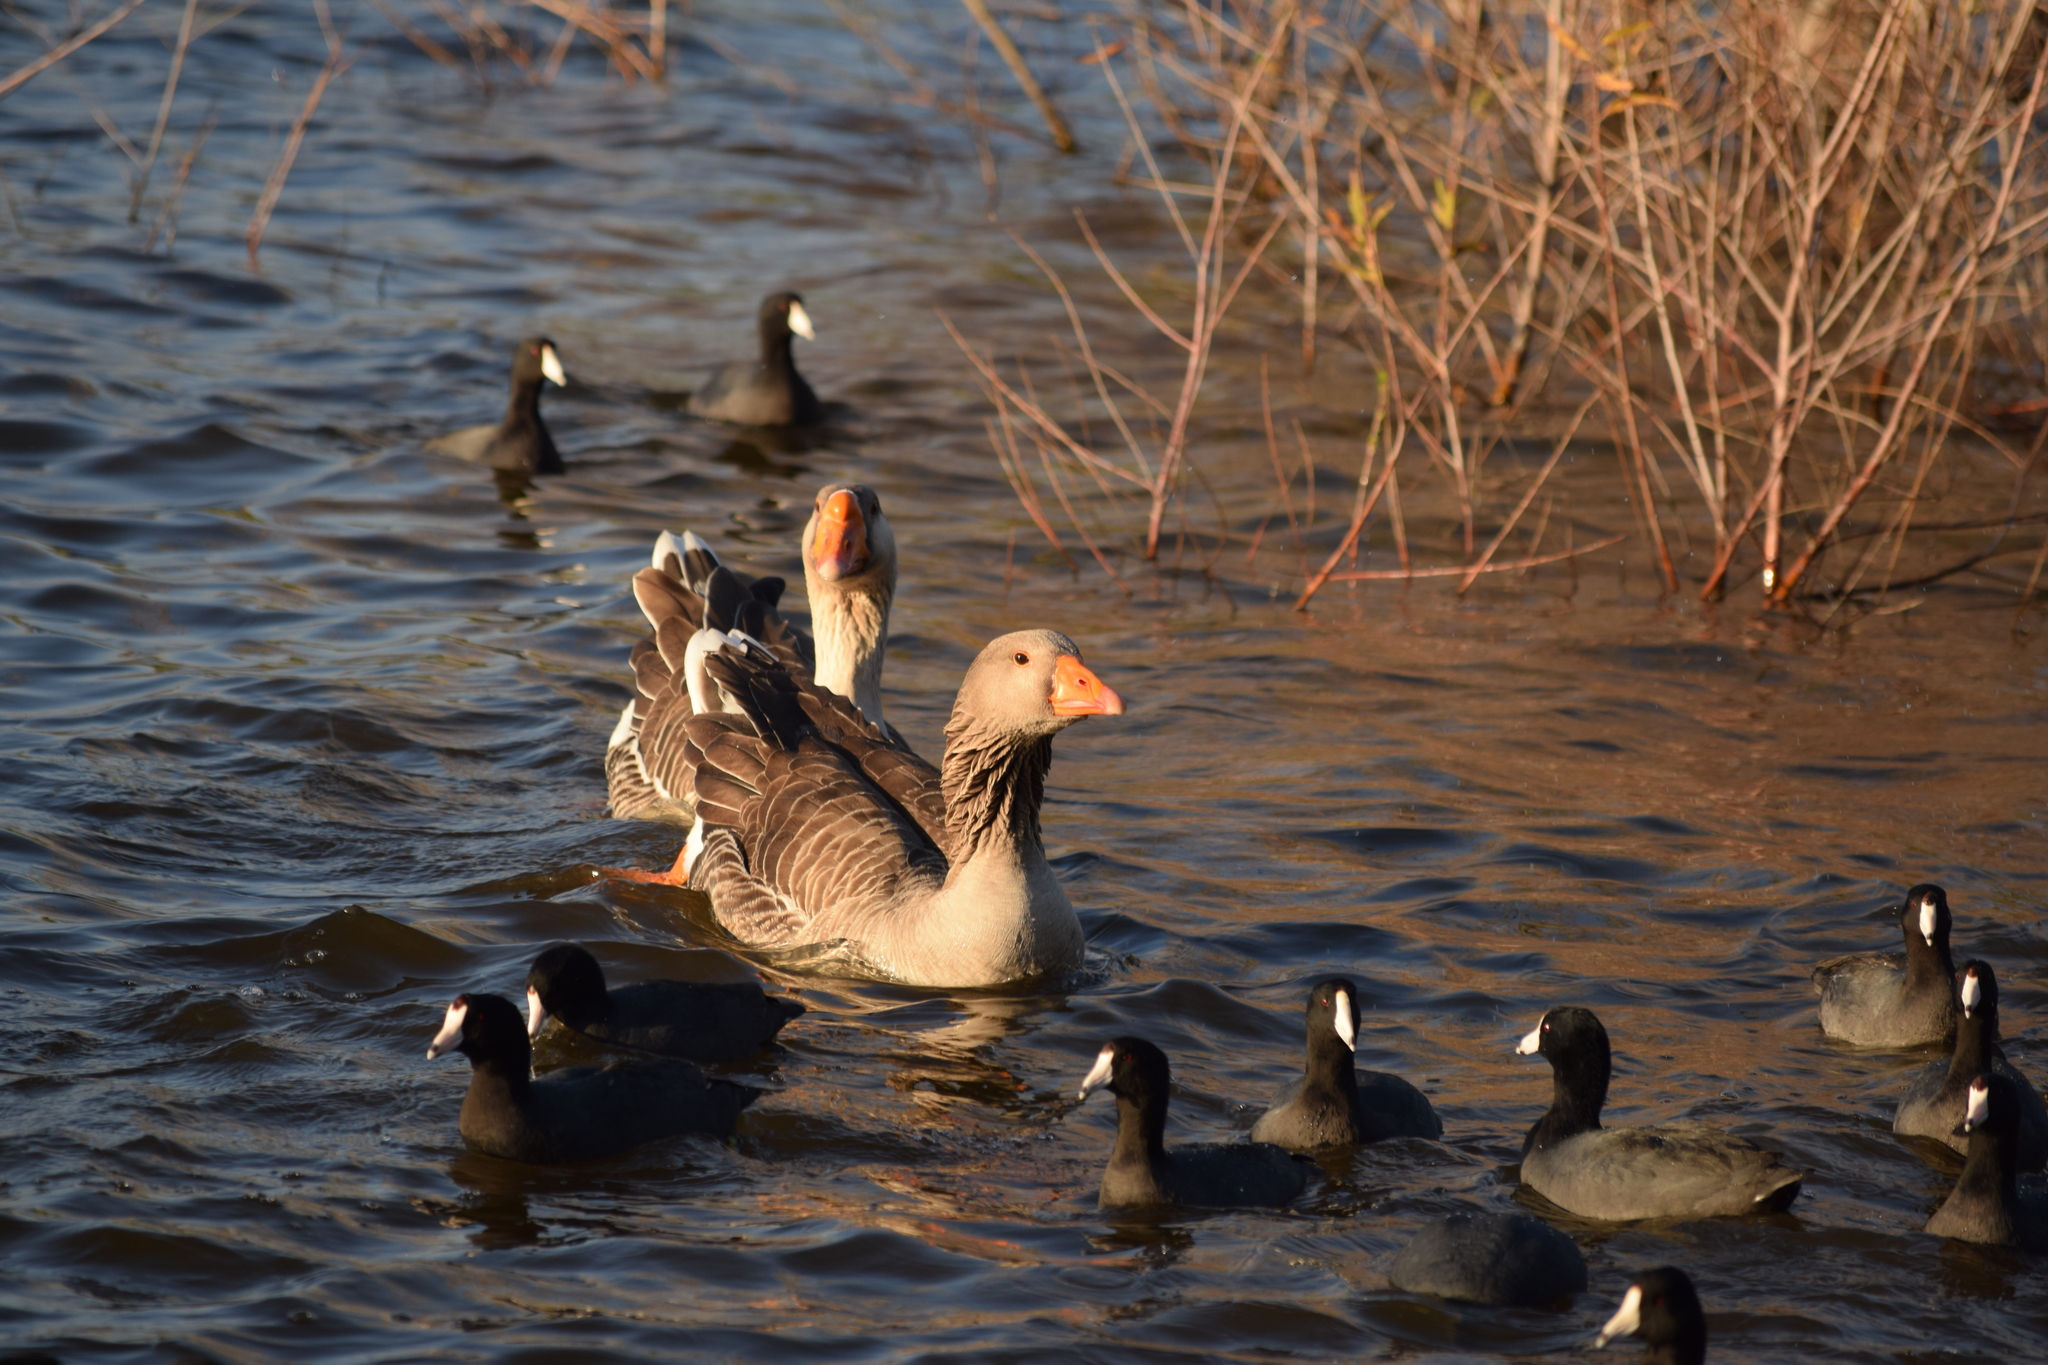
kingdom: Animalia
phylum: Chordata
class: Aves
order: Anseriformes
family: Anatidae
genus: Anser
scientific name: Anser anser
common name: Greylag goose
